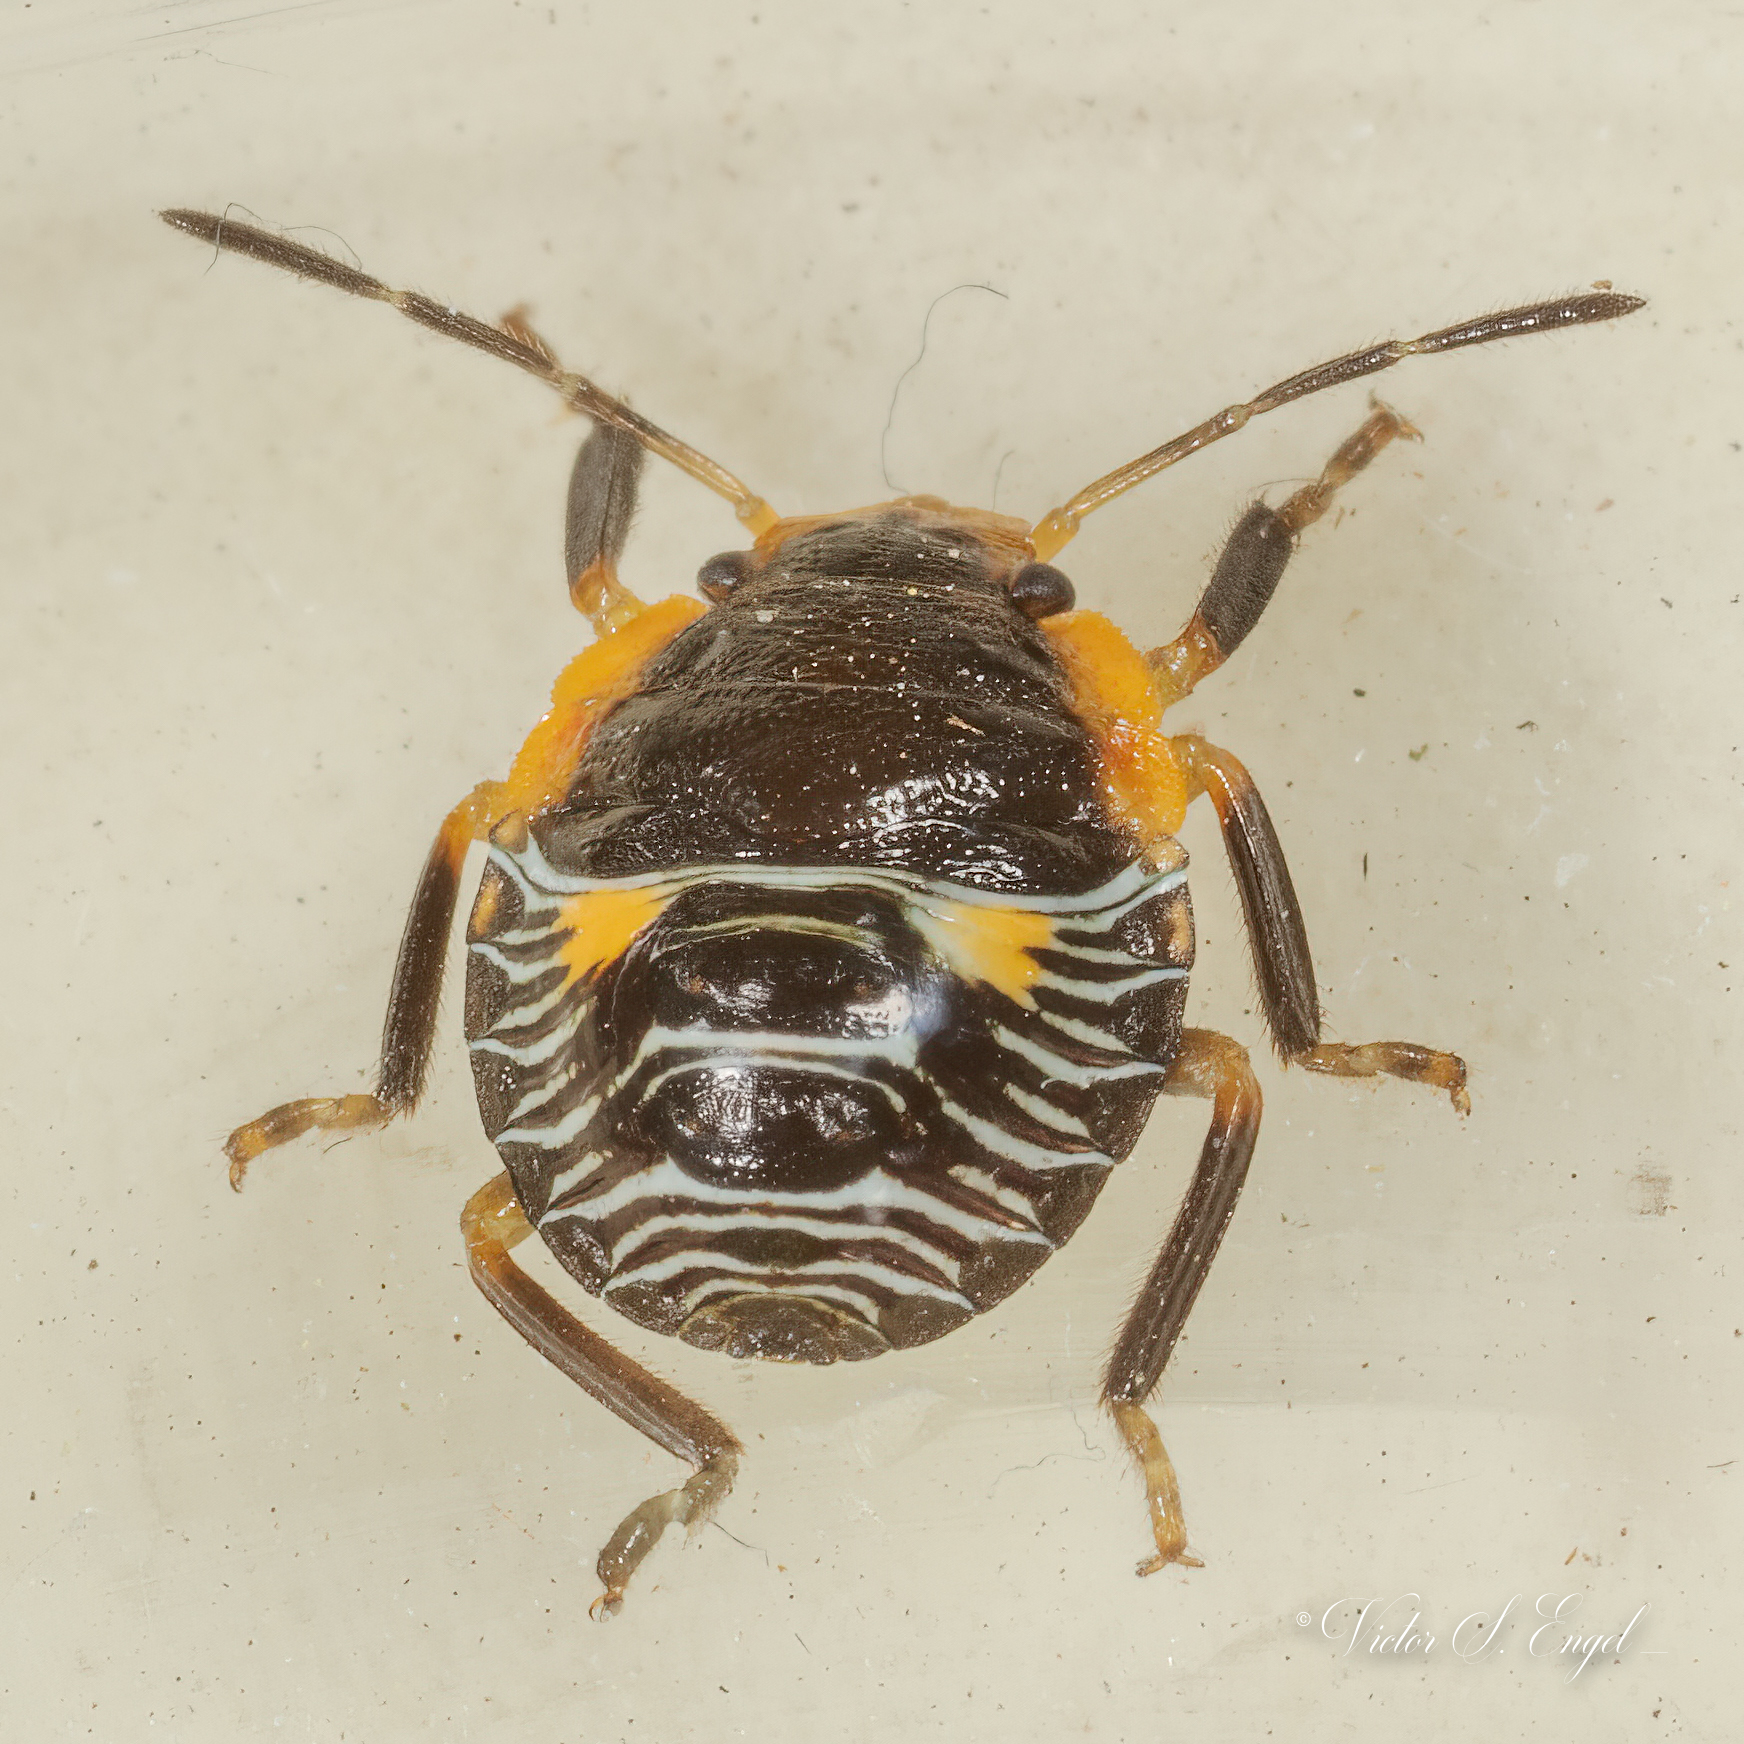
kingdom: Animalia
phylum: Arthropoda
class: Insecta
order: Hemiptera
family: Pentatomidae
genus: Chinavia
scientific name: Chinavia hilaris
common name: Green stink bug
